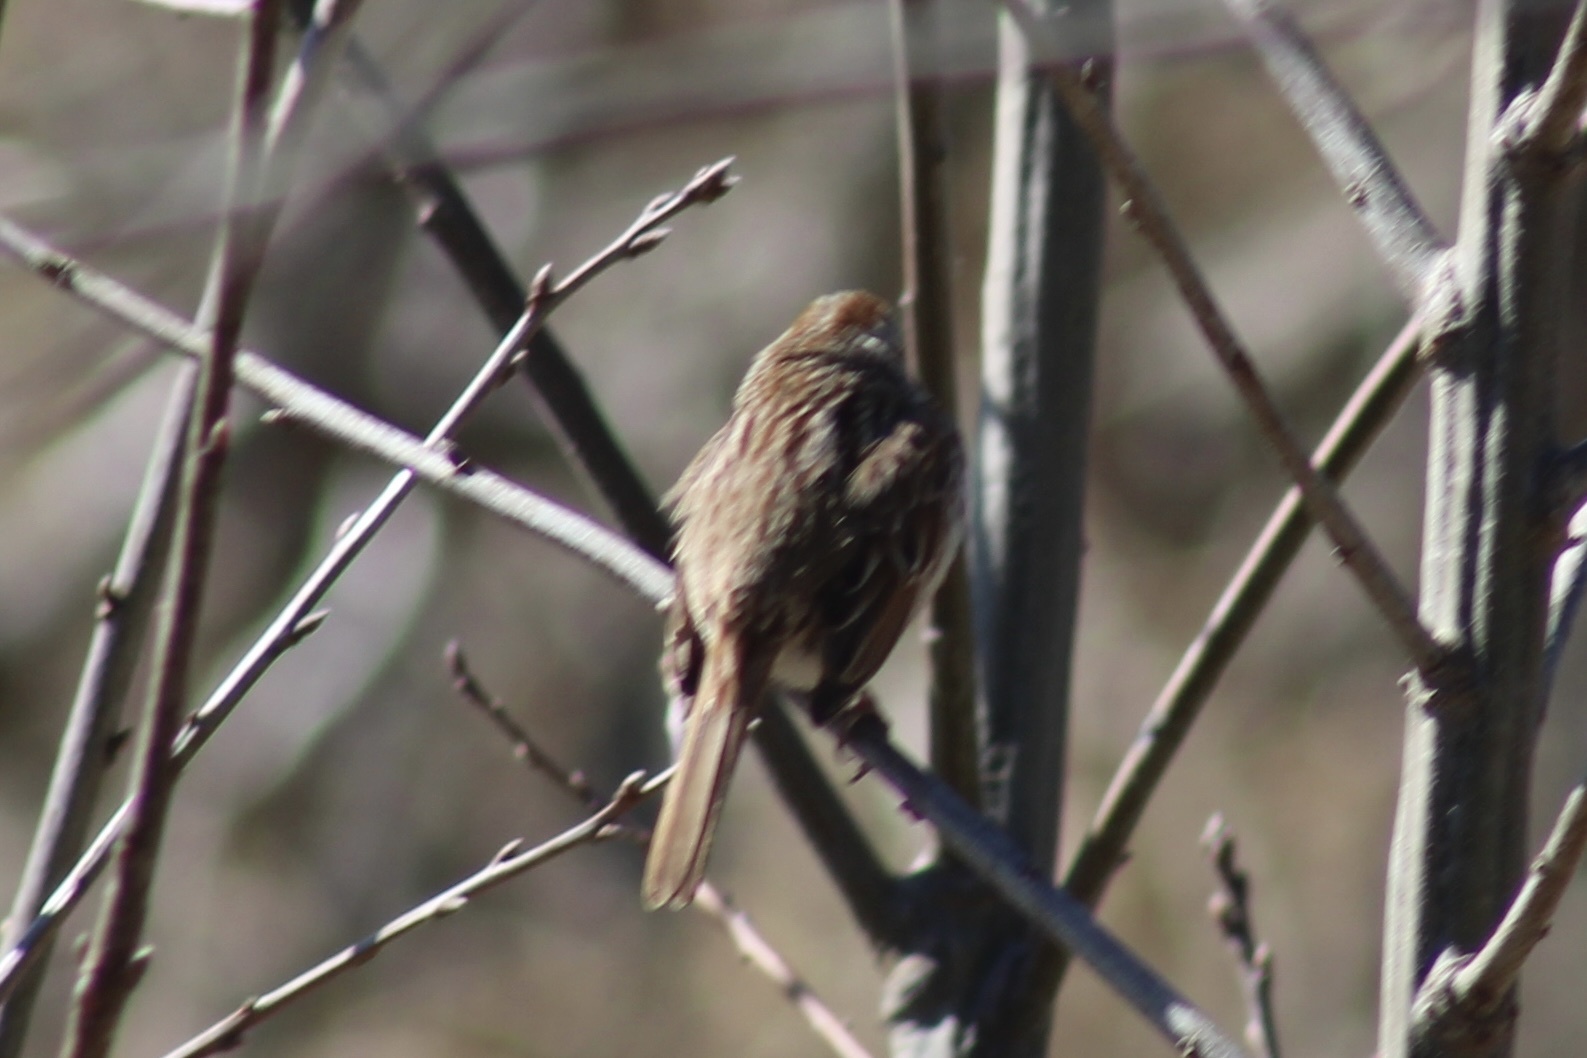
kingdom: Animalia
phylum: Chordata
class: Aves
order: Passeriformes
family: Passerellidae
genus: Melospiza
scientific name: Melospiza melodia
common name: Song sparrow
